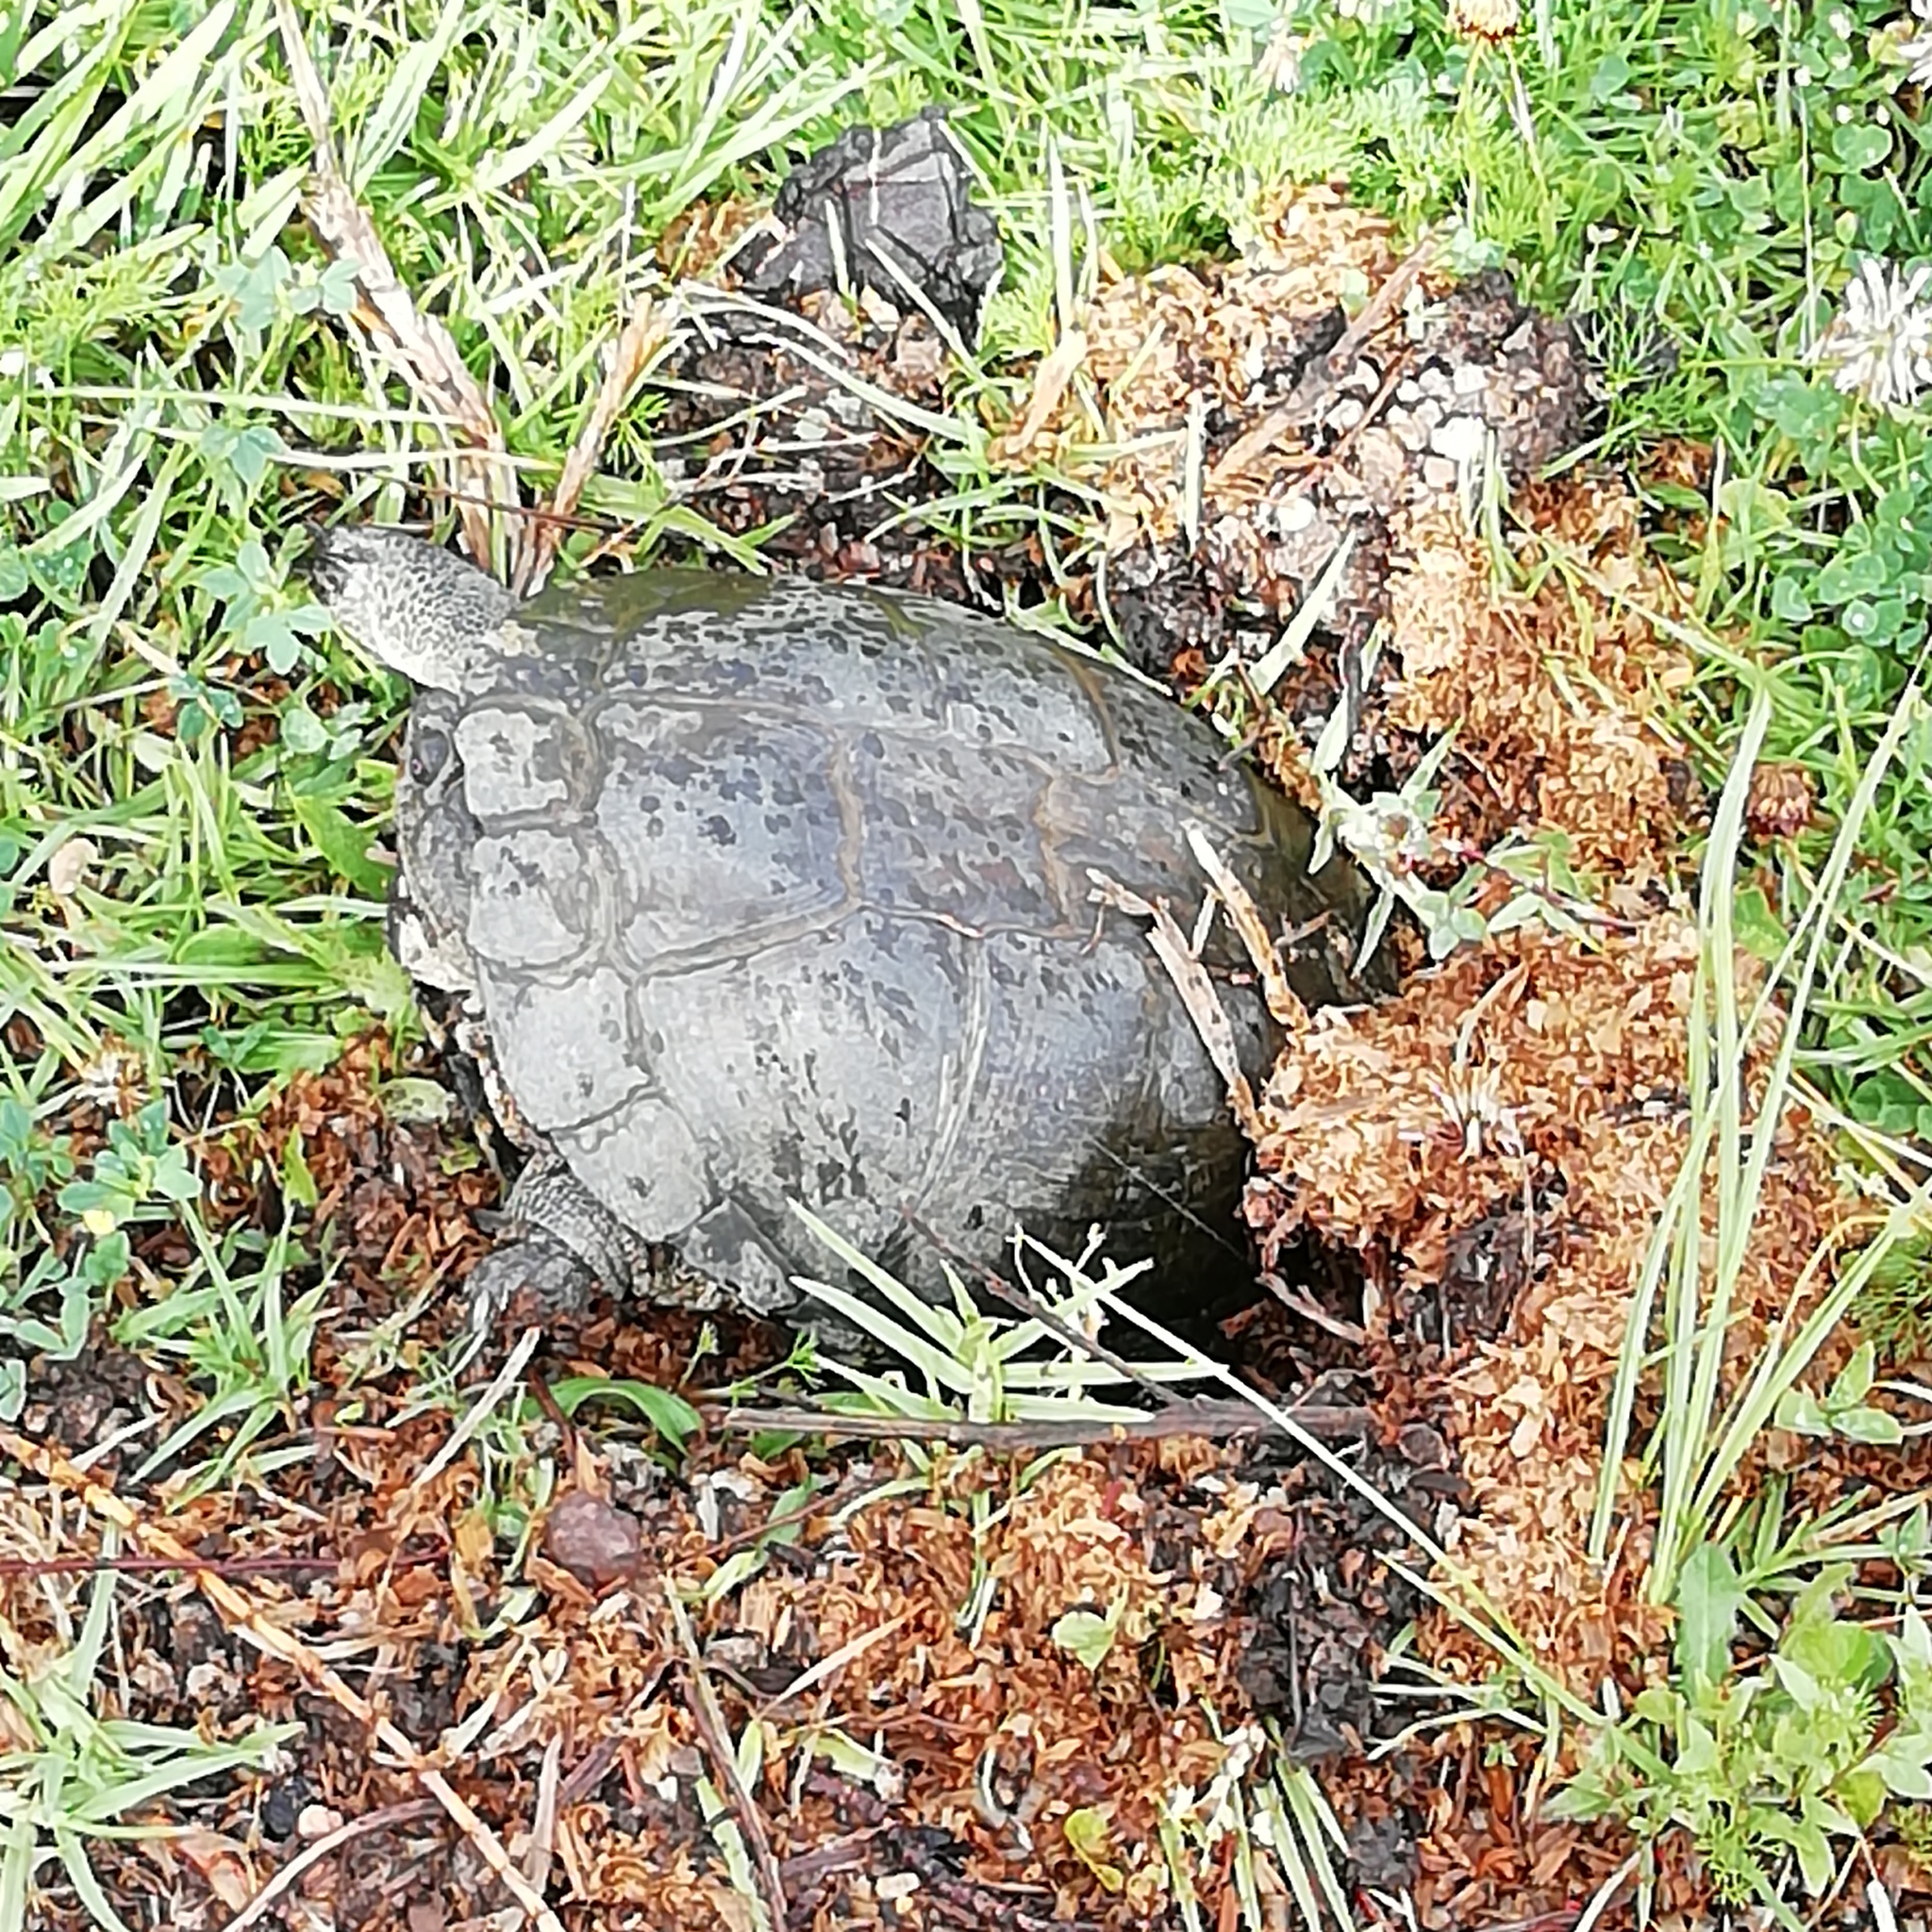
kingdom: Animalia
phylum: Chordata
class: Testudines
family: Pelomedusidae
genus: Pelomedusa
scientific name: Pelomedusa galeata
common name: South african helmeted terrapin
